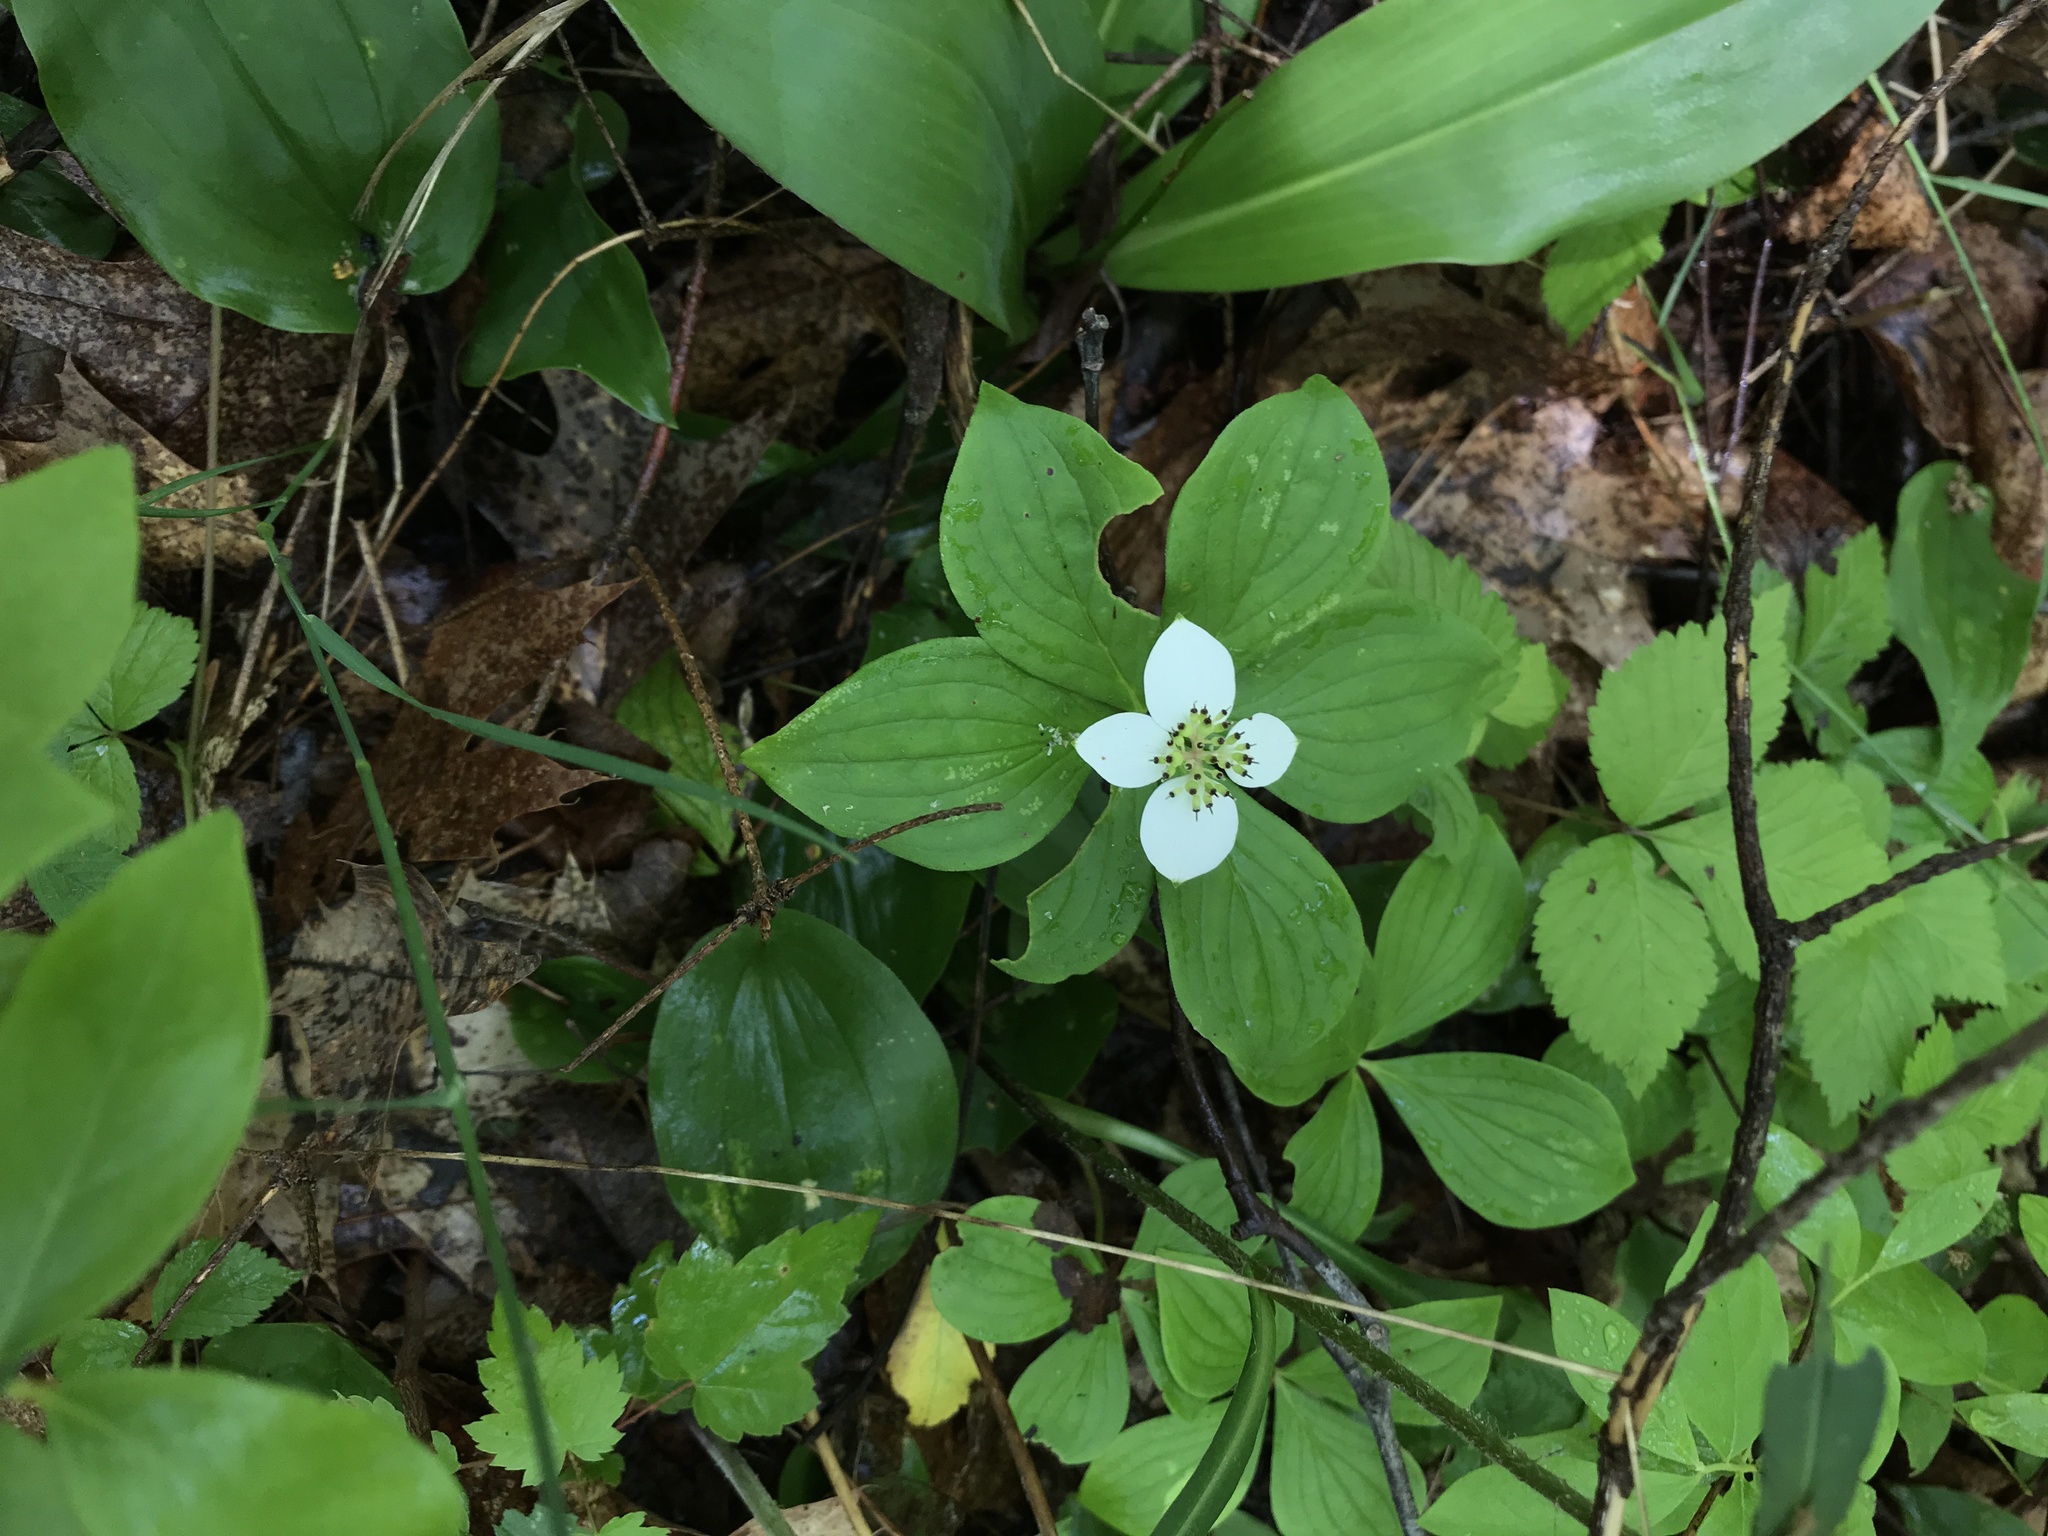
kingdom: Plantae
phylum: Tracheophyta
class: Magnoliopsida
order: Cornales
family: Cornaceae
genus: Cornus
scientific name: Cornus canadensis
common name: Creeping dogwood
